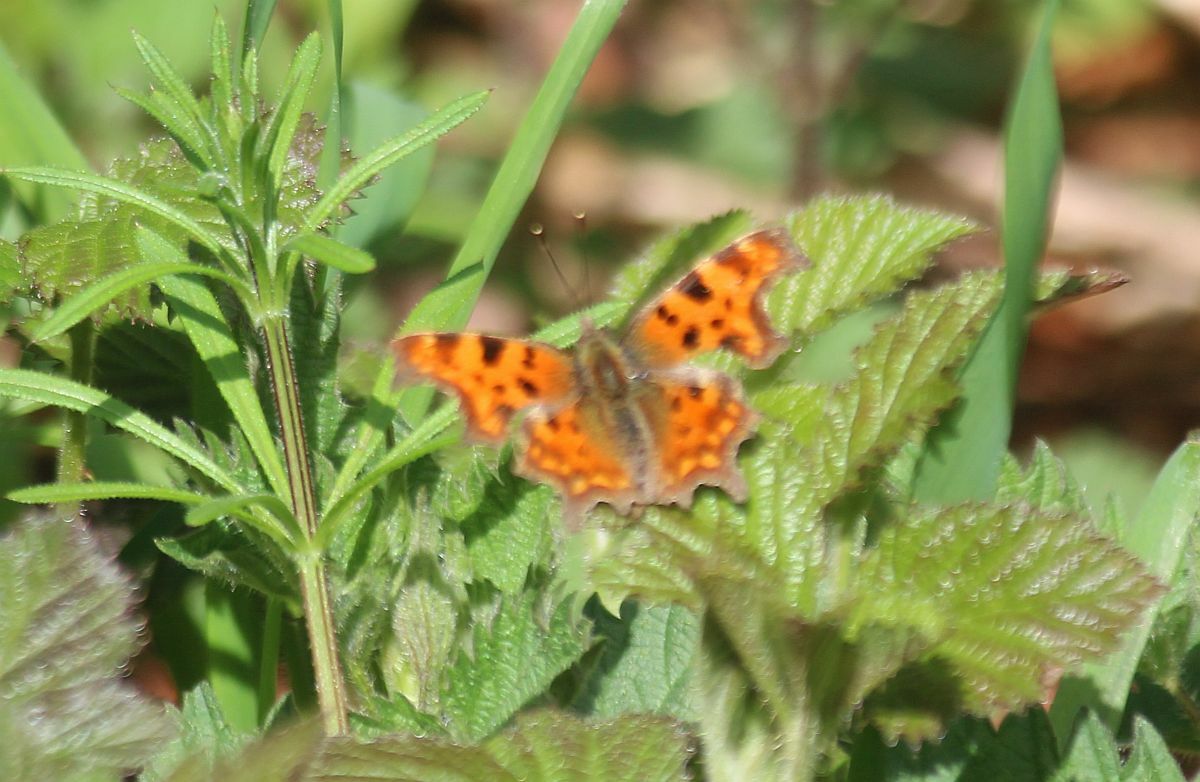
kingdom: Animalia
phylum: Arthropoda
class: Insecta
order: Lepidoptera
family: Nymphalidae
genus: Polygonia
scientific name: Polygonia c-album
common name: Comma
